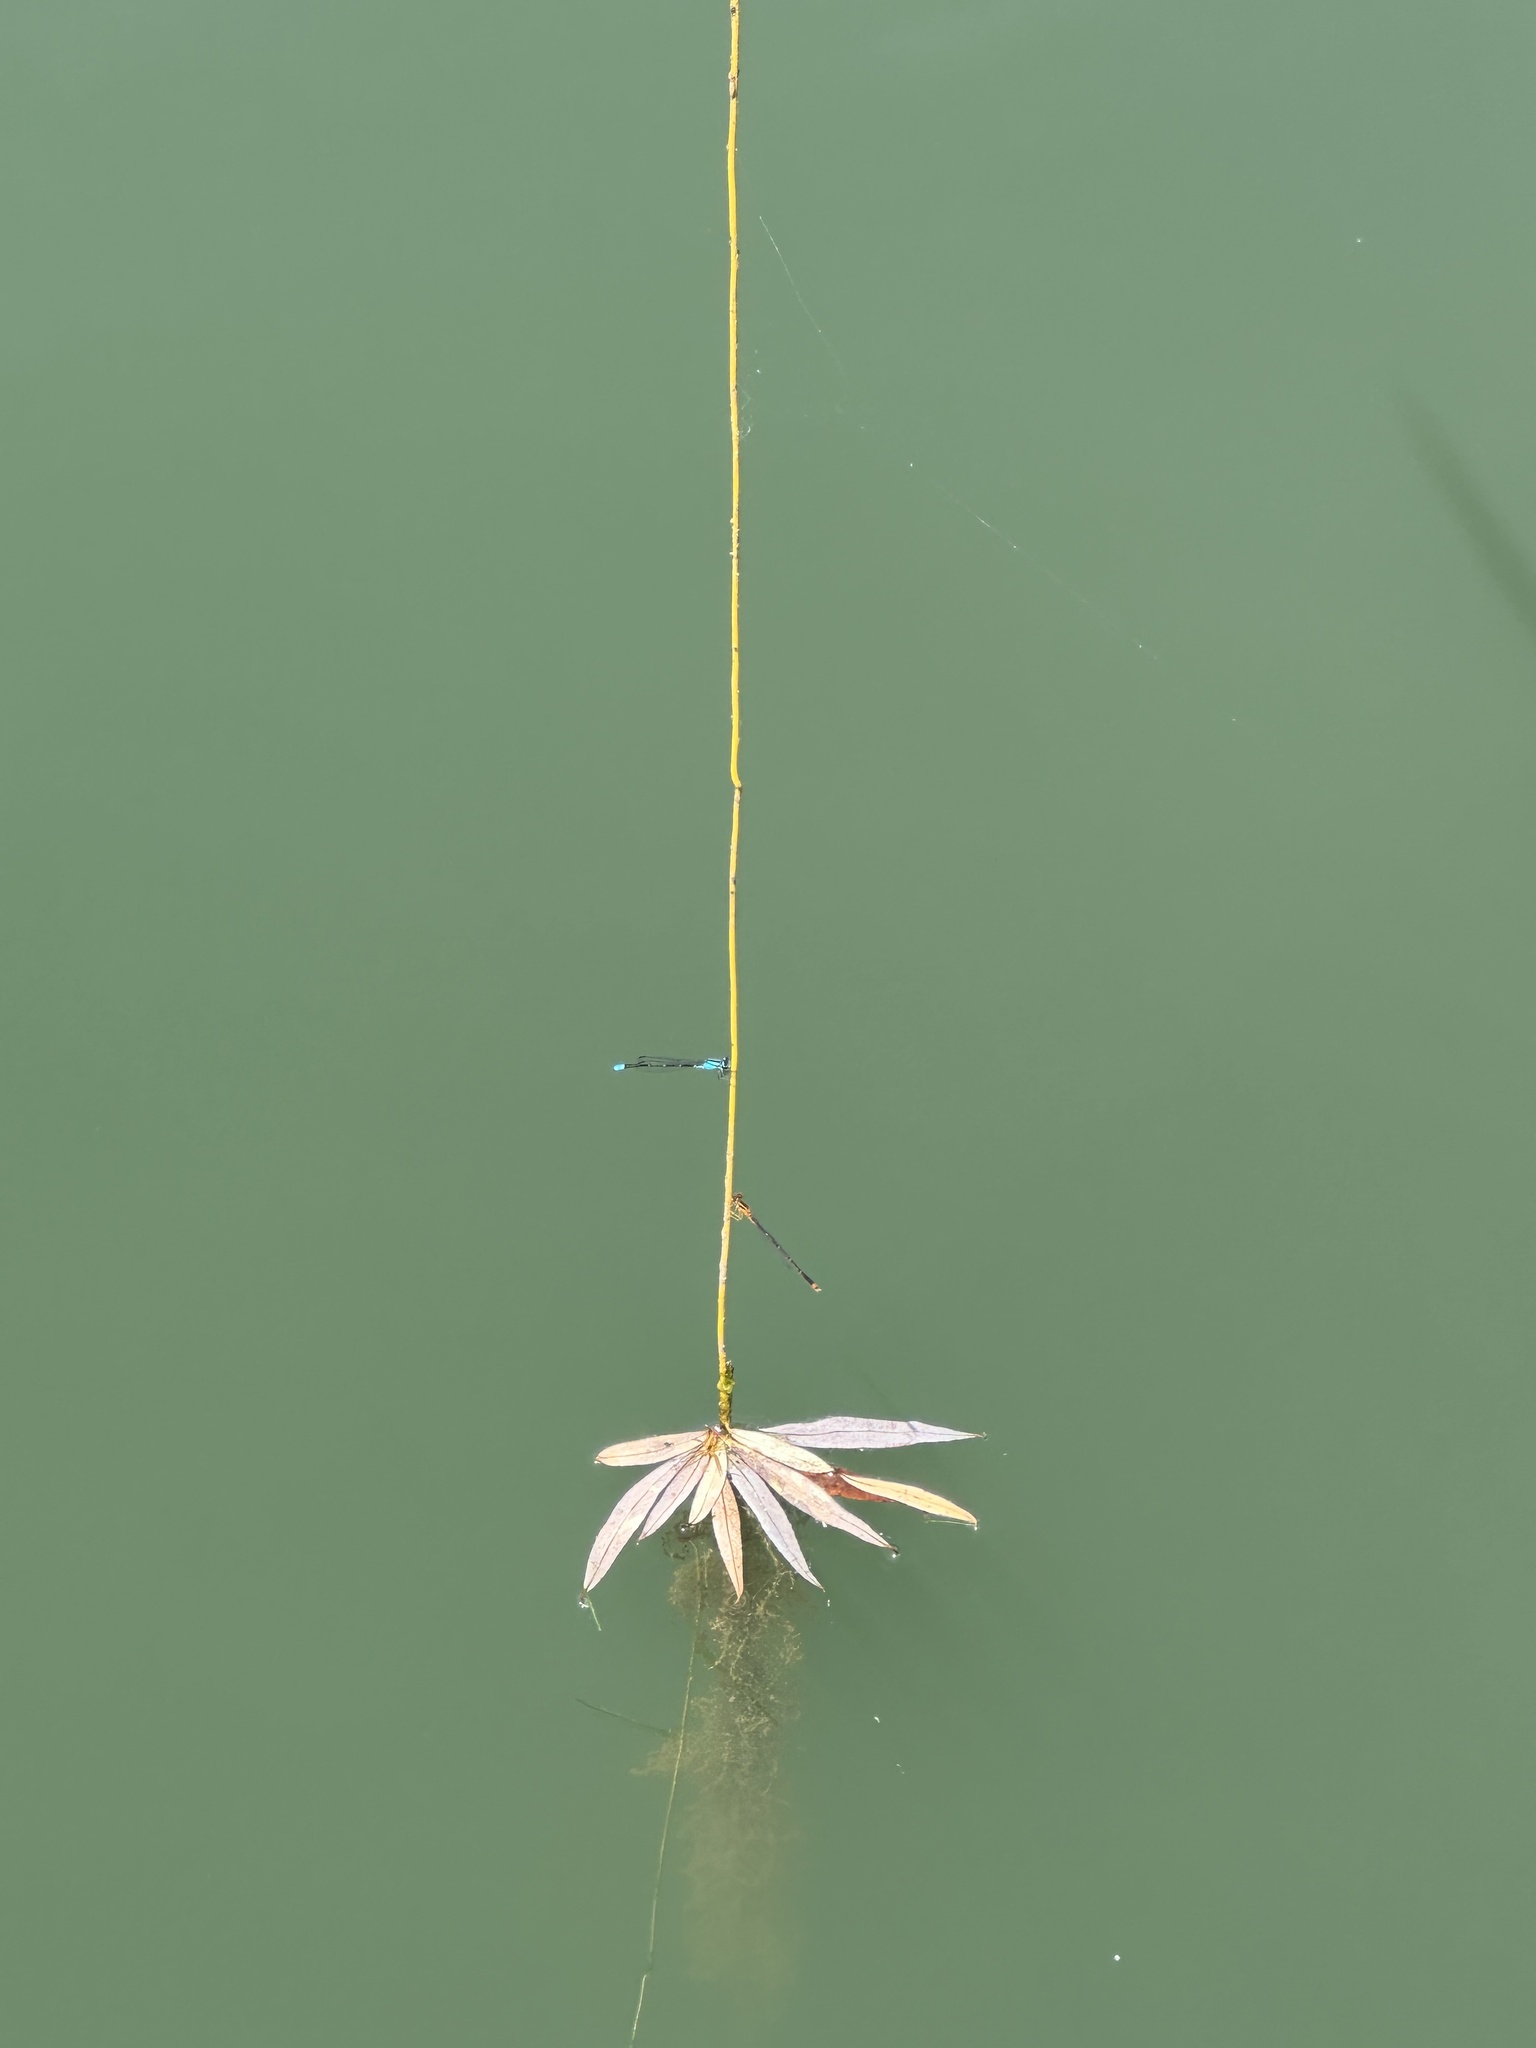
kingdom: Animalia
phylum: Arthropoda
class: Insecta
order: Odonata
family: Coenagrionidae
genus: Enallagma
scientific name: Enallagma signatum
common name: Orange bluet
